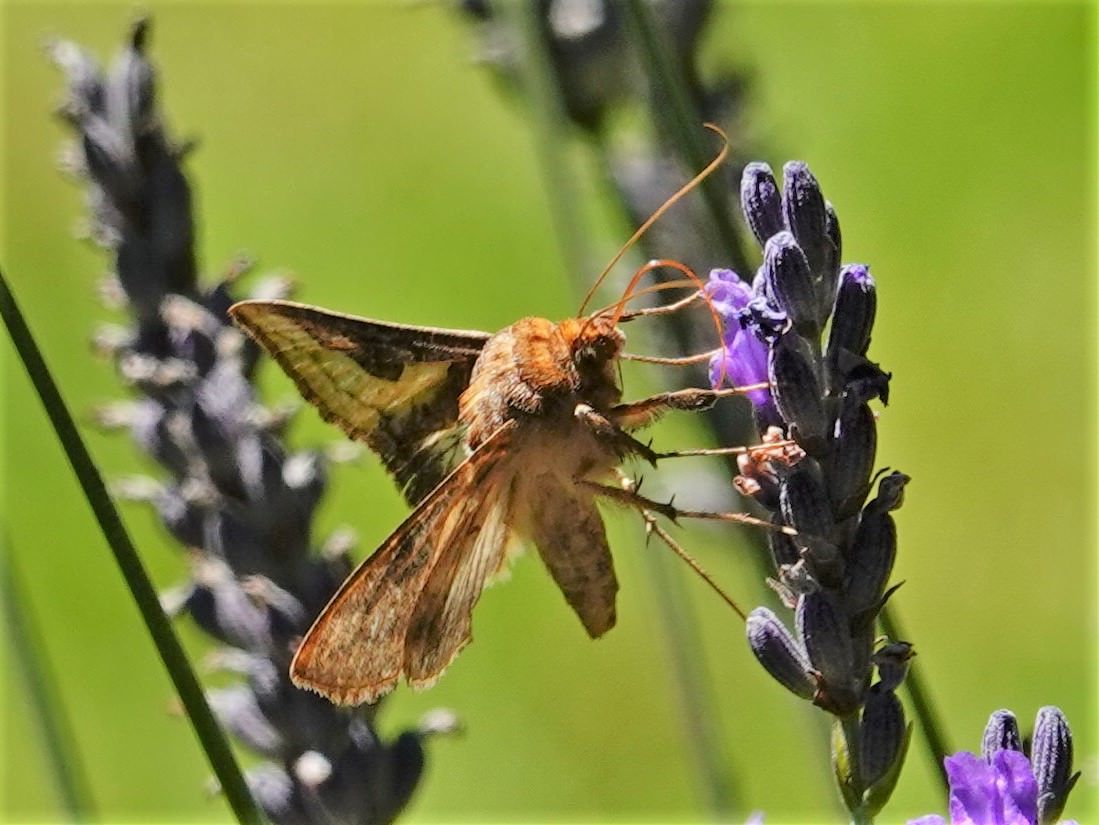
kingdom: Animalia
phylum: Arthropoda
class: Insecta
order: Lepidoptera
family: Noctuidae
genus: Thysanoplusia
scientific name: Thysanoplusia orichalcea
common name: Slender burnished brass, golden plusia
